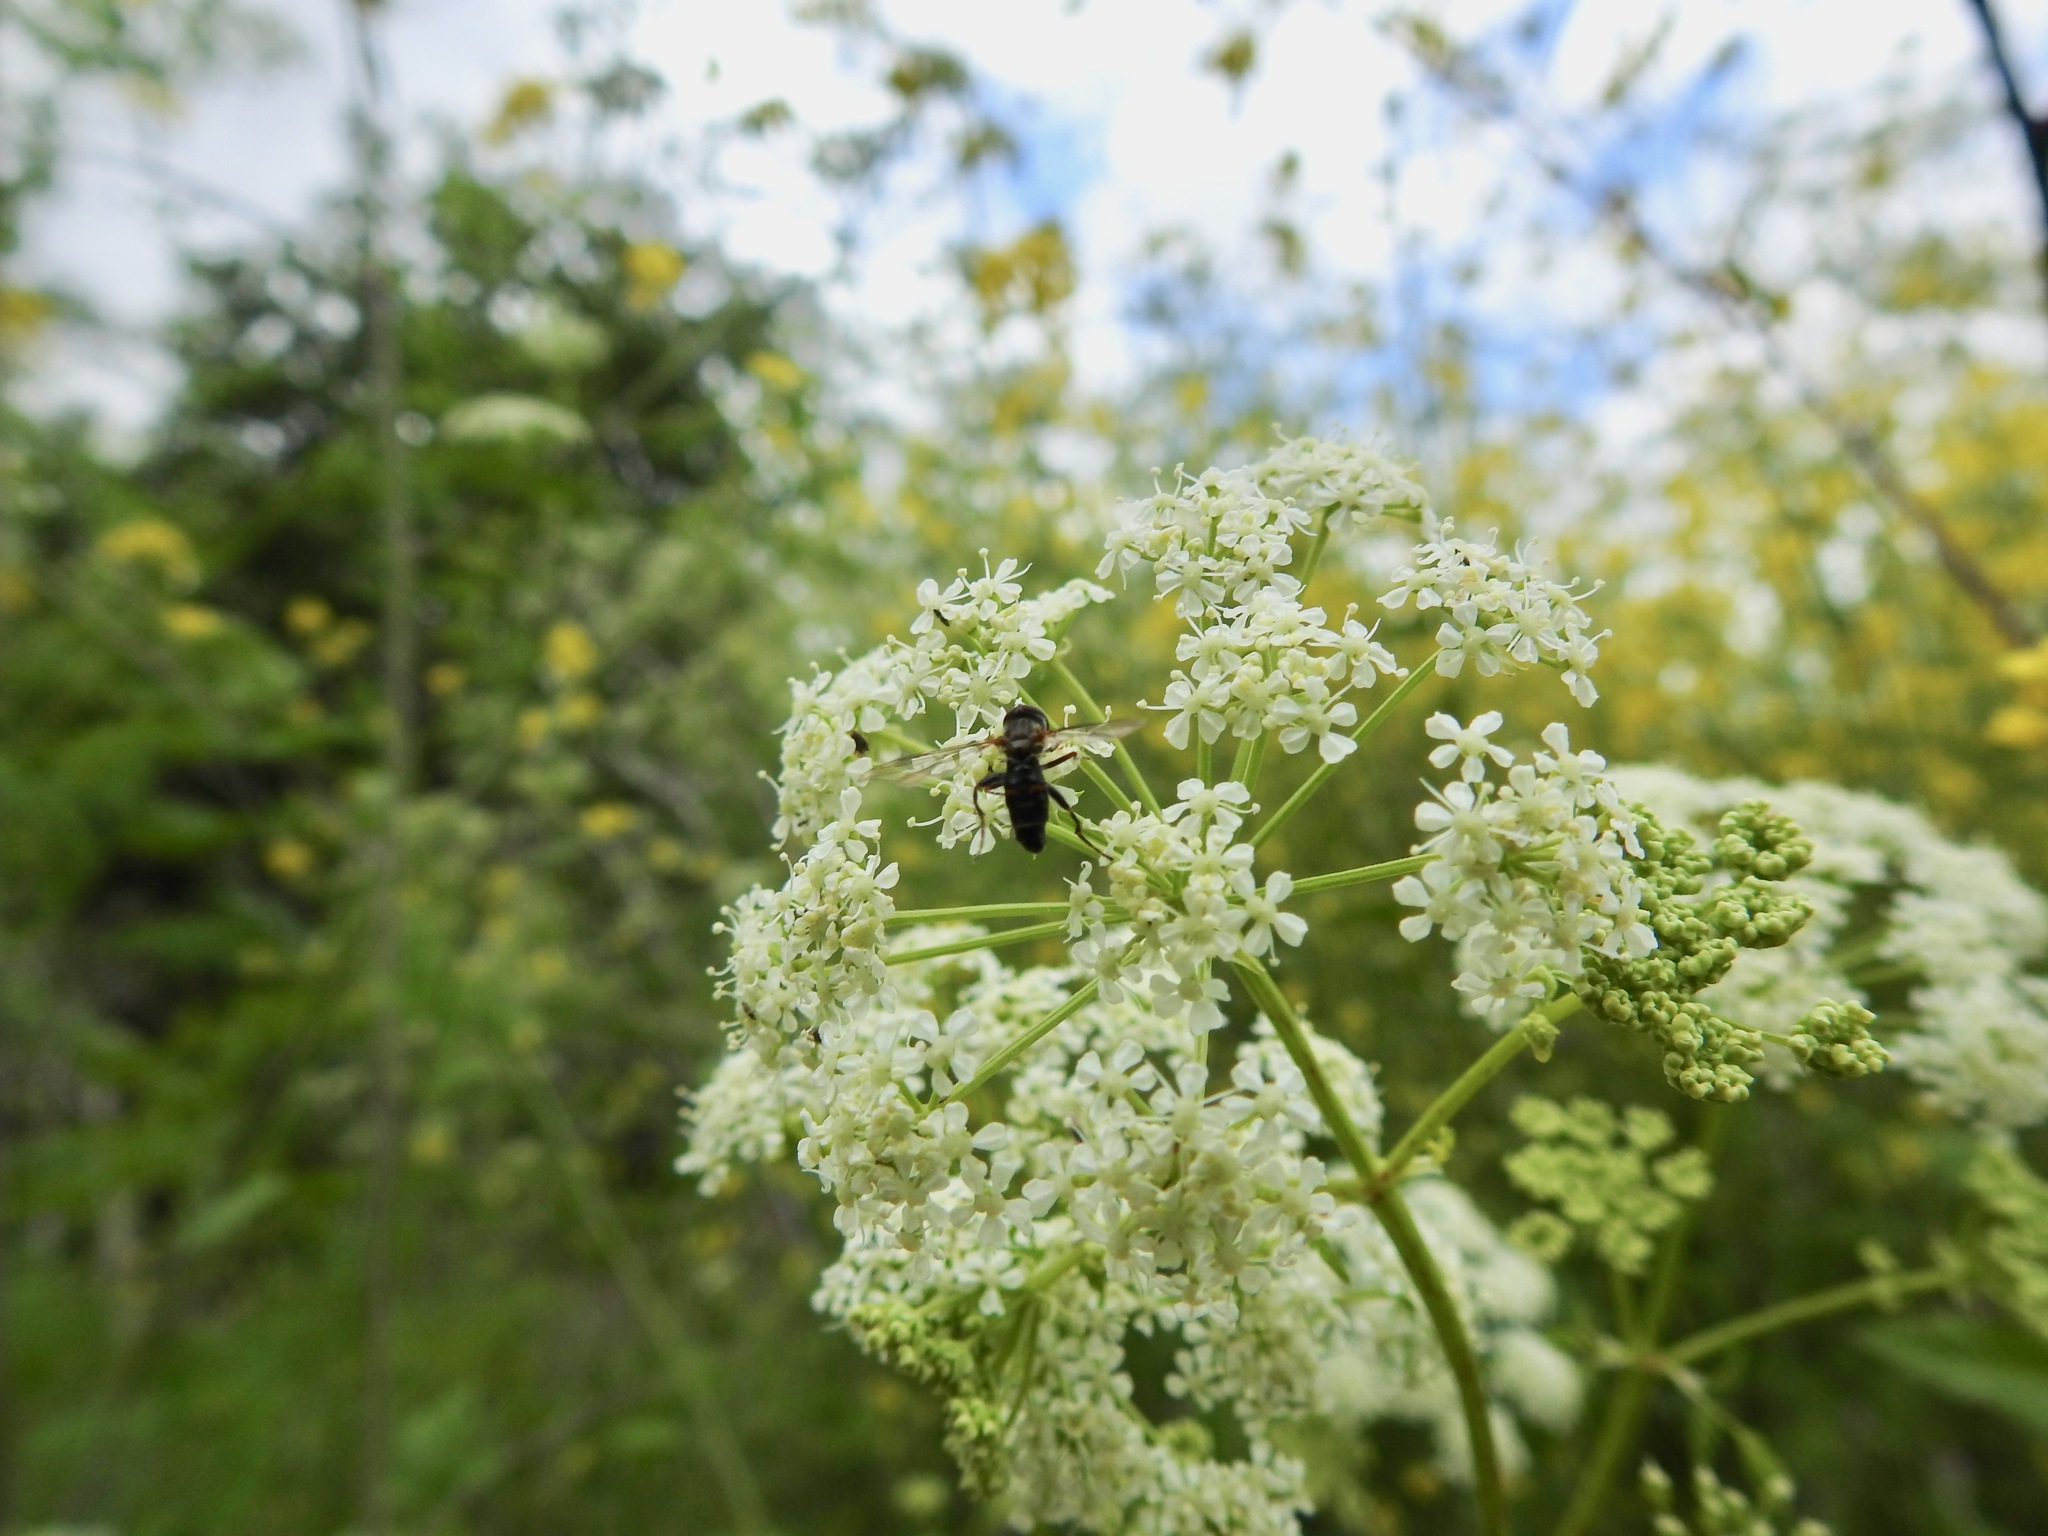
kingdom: Animalia
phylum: Arthropoda
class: Insecta
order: Diptera
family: Syrphidae
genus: Toxomerus
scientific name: Toxomerus occidentalis
